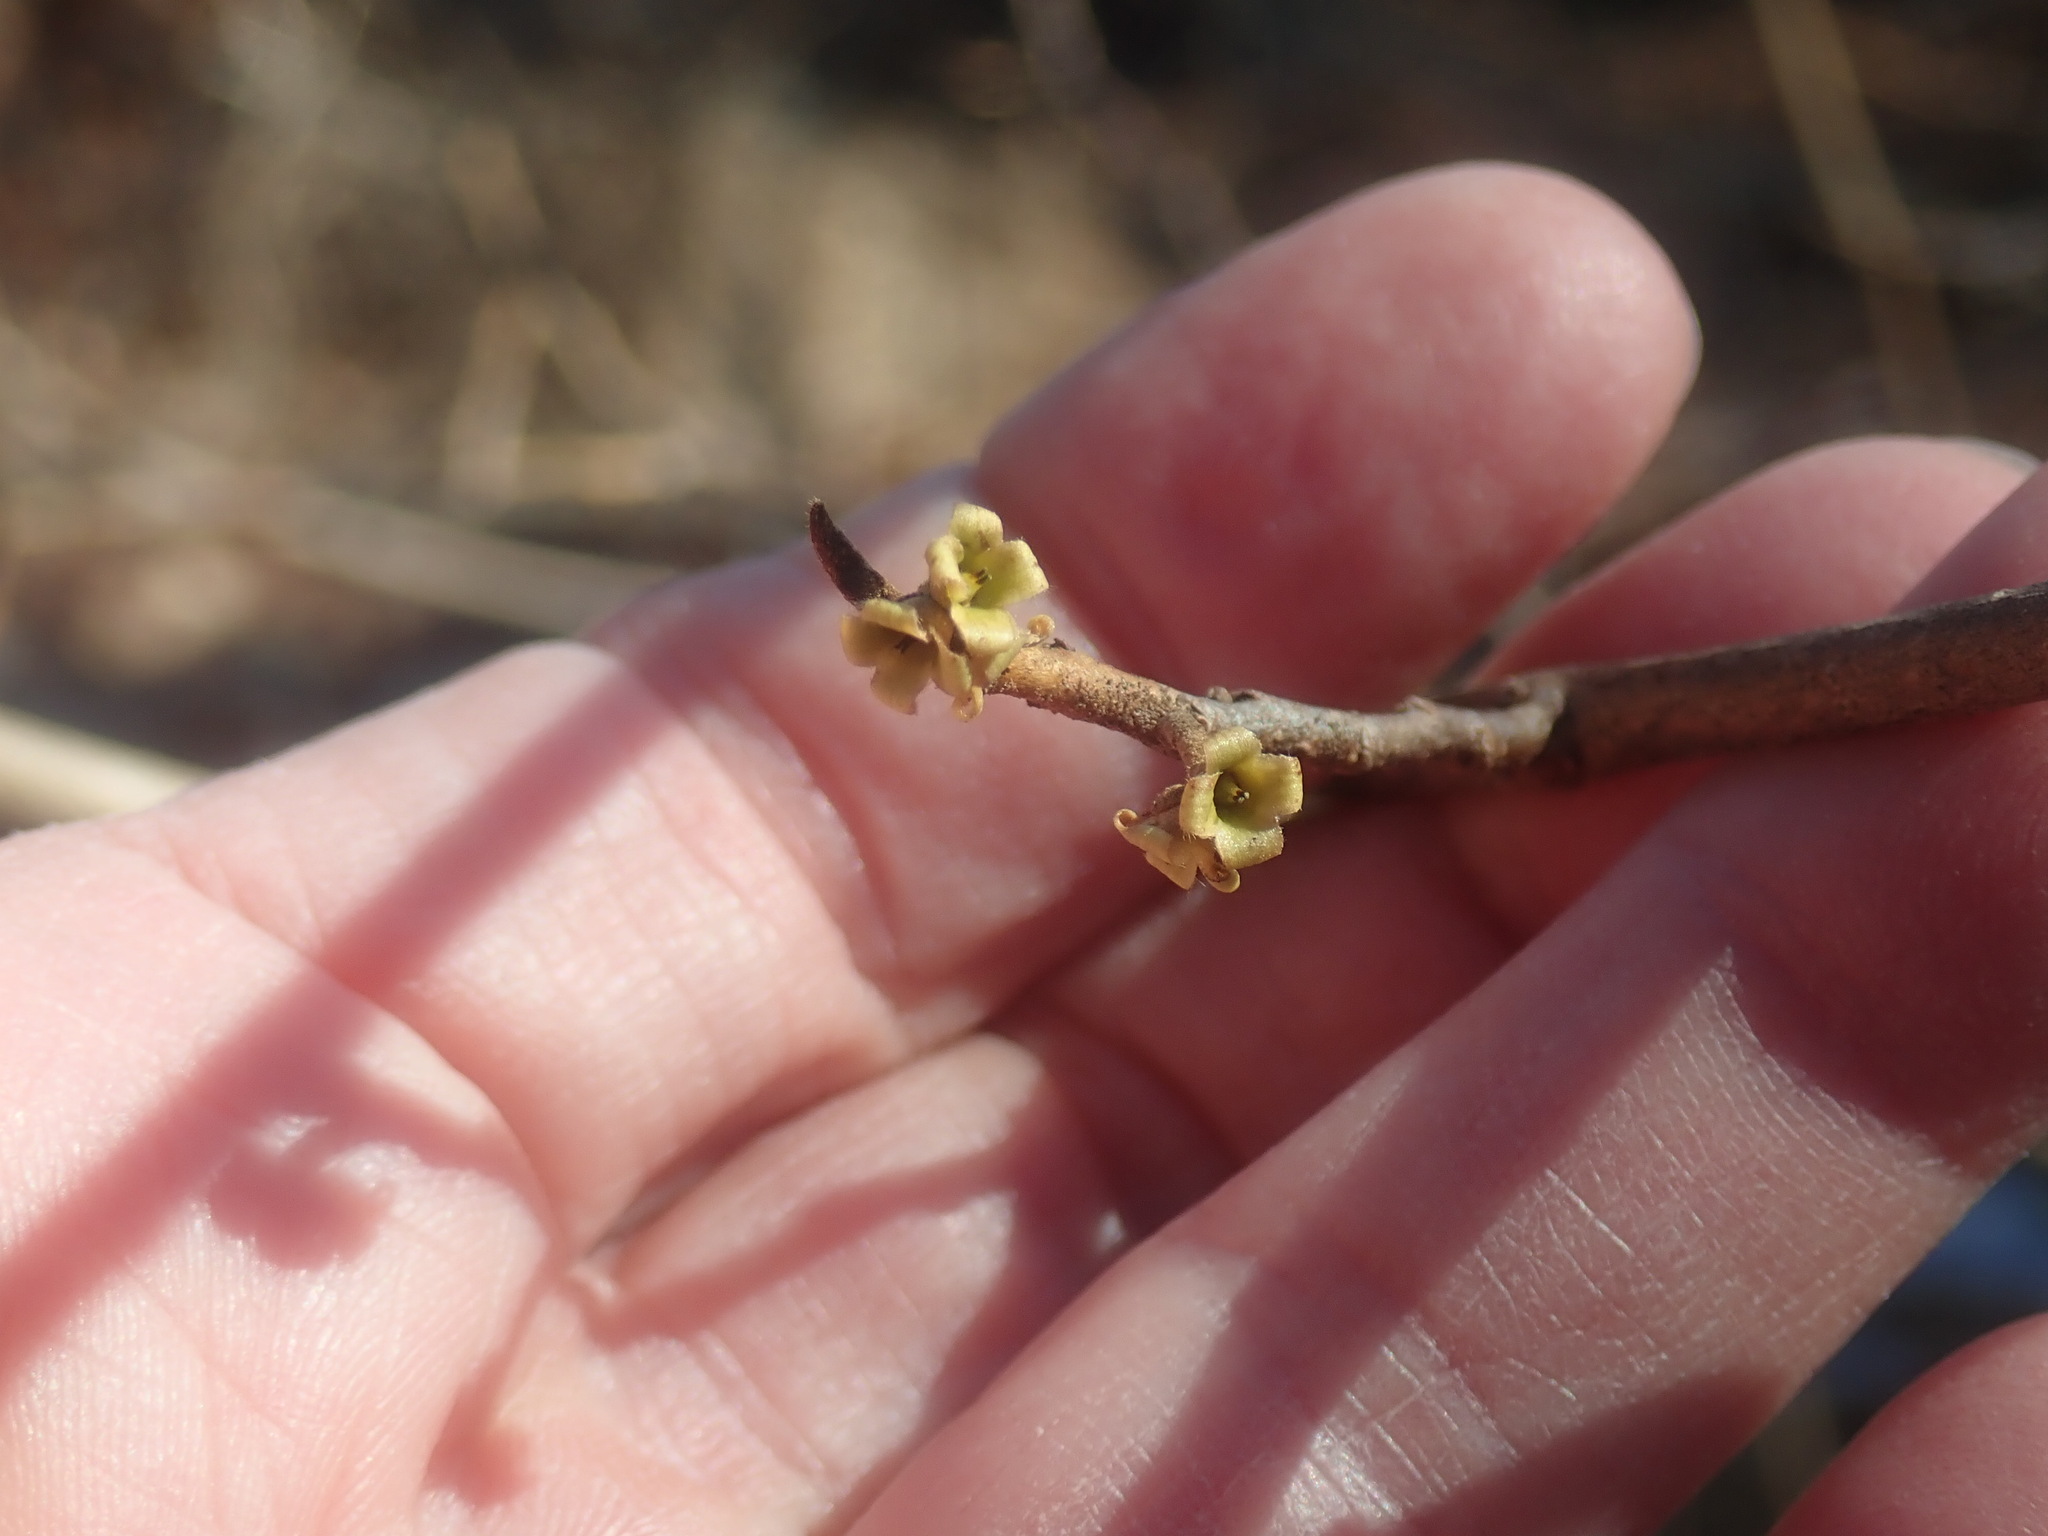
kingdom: Plantae
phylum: Tracheophyta
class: Magnoliopsida
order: Saxifragales
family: Hamamelidaceae
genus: Hamamelis
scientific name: Hamamelis virginiana
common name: Witch-hazel
